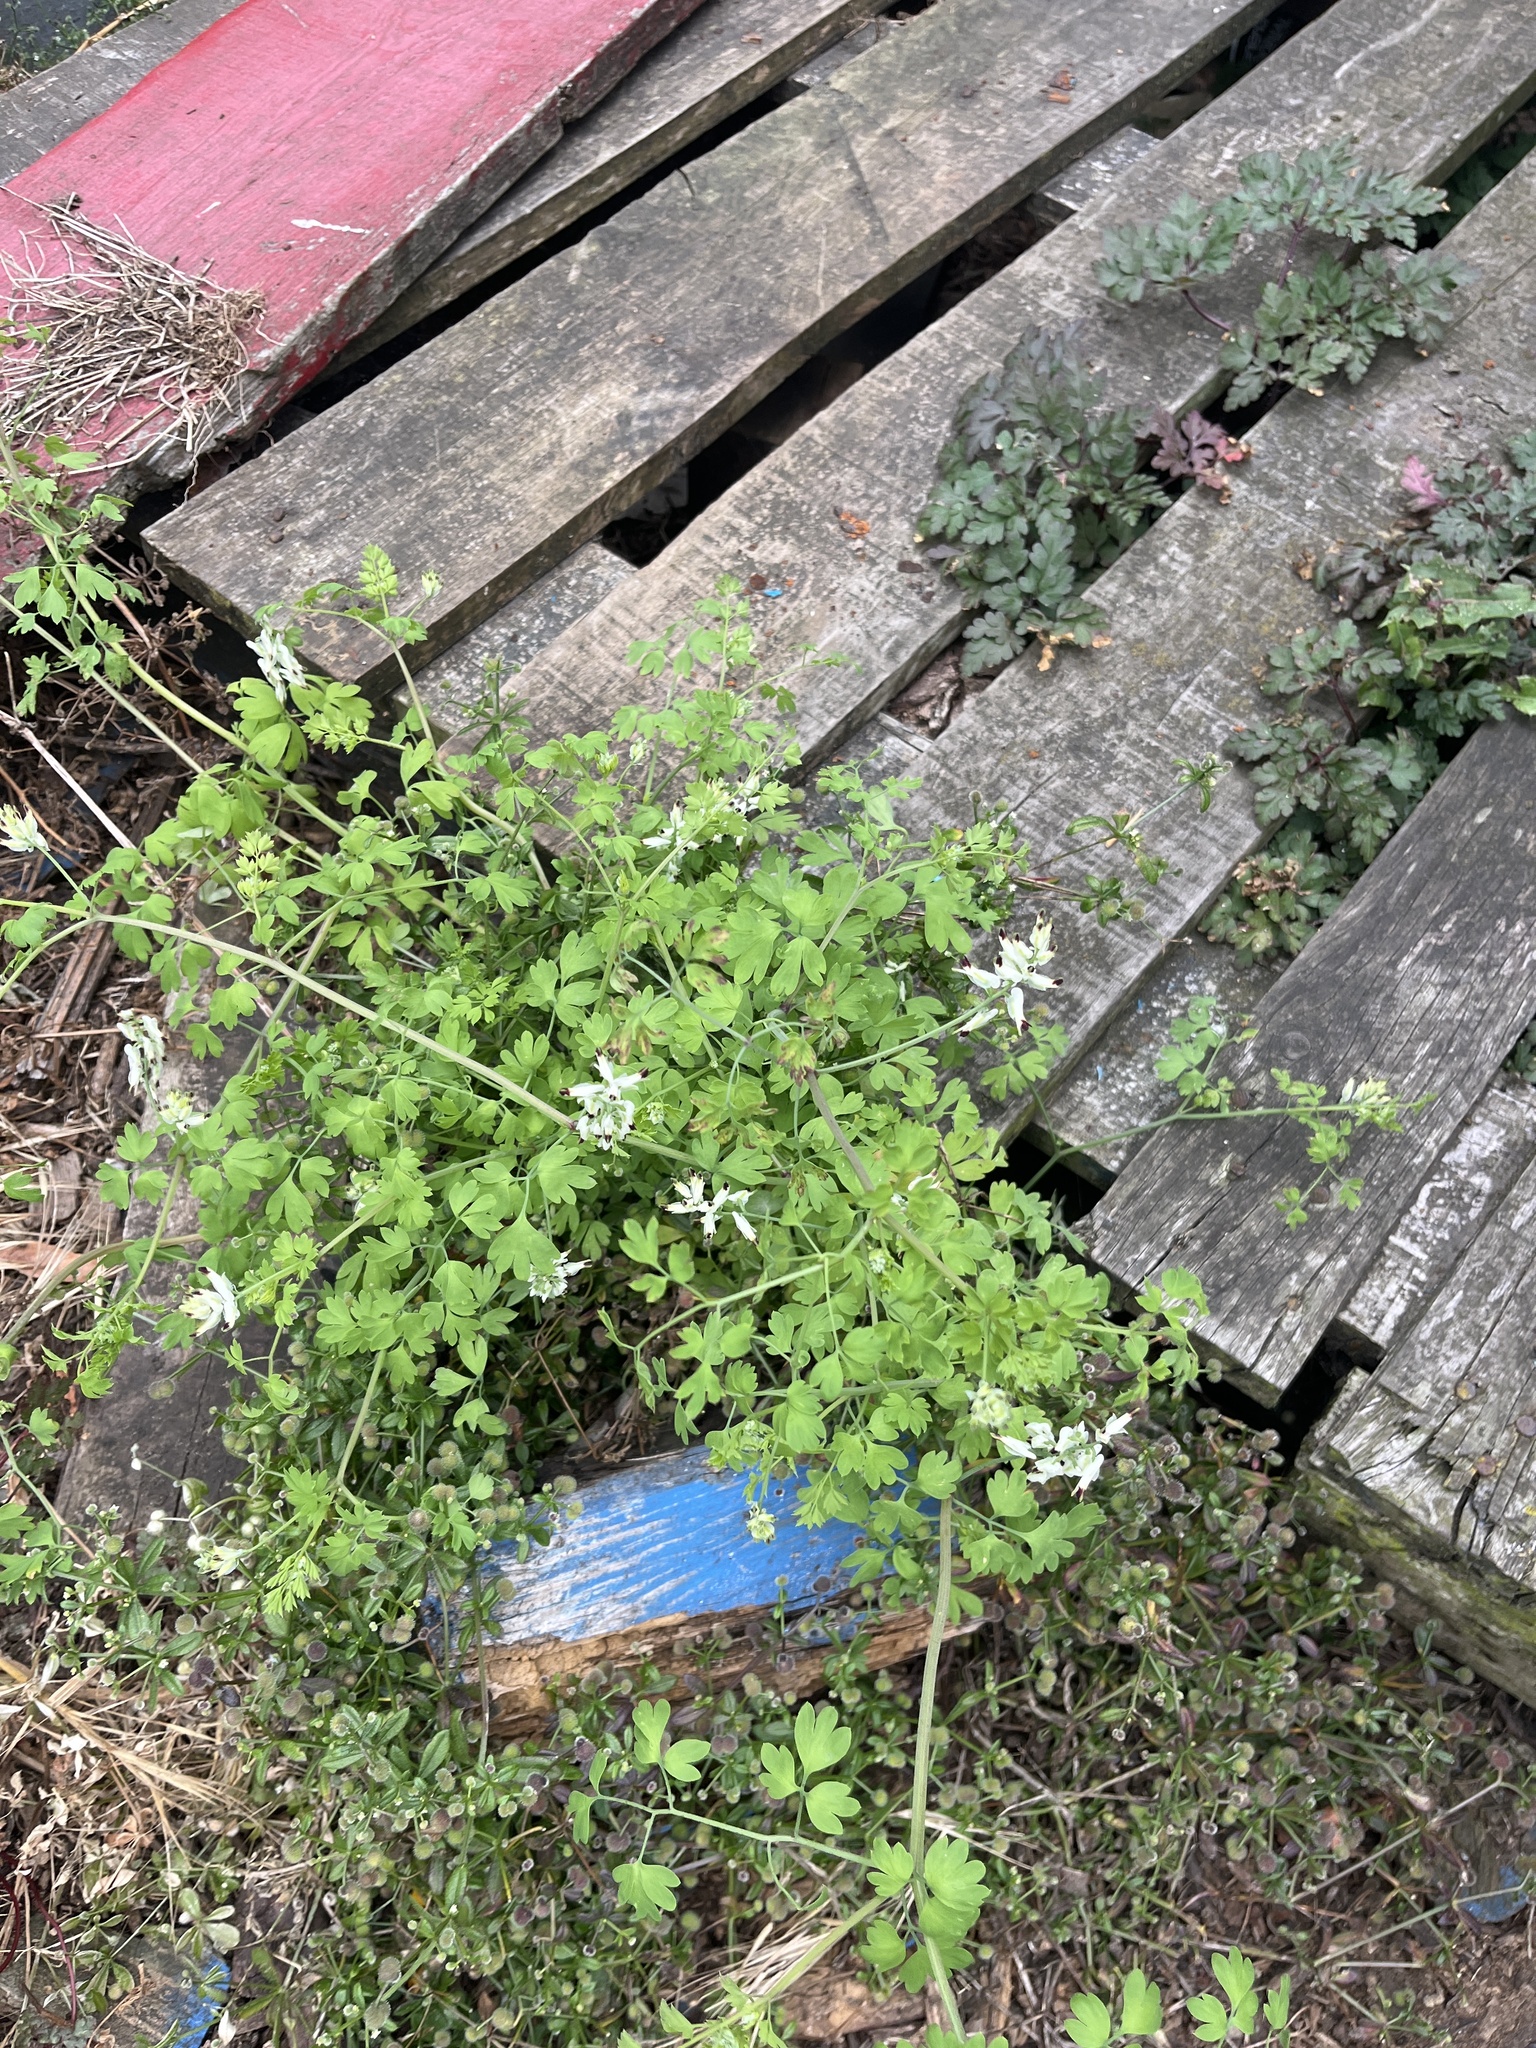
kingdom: Plantae
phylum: Tracheophyta
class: Magnoliopsida
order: Ranunculales
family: Papaveraceae
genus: Fumaria
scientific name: Fumaria capreolata
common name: White ramping-fumitory
